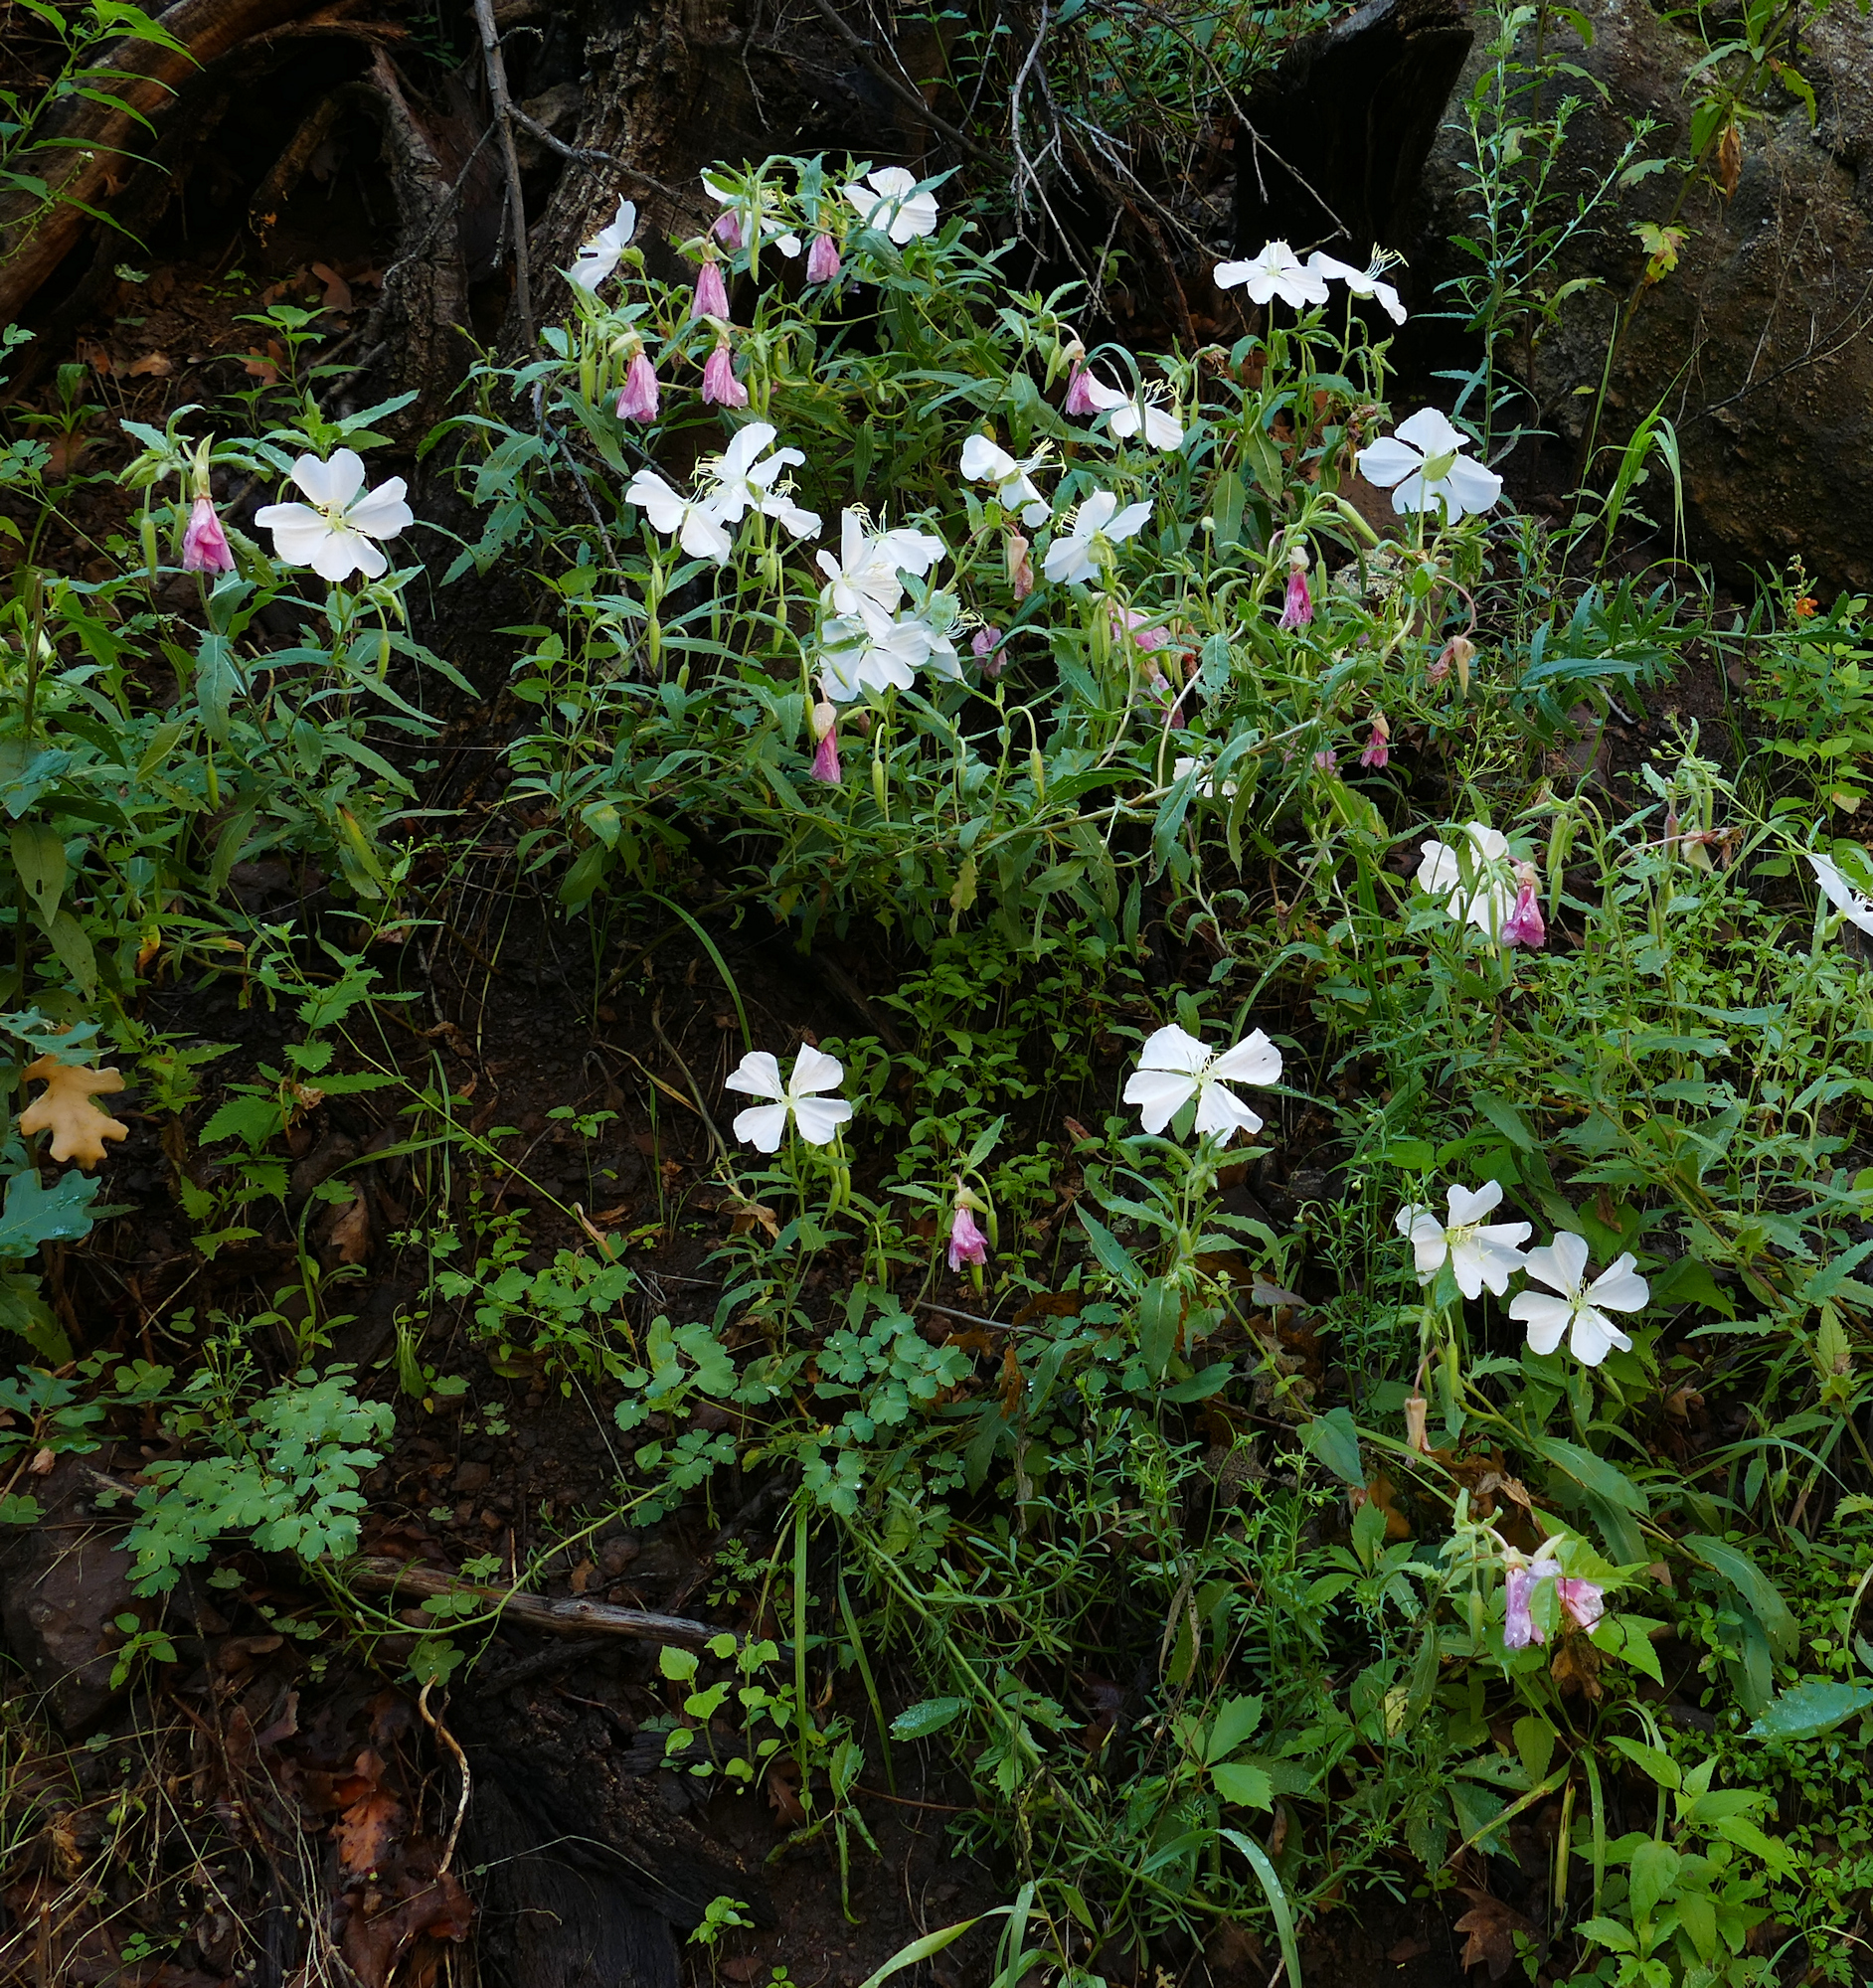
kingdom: Plantae
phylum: Tracheophyta
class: Magnoliopsida
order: Myrtales
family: Onagraceae
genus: Oenothera
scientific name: Oenothera neomexicana
